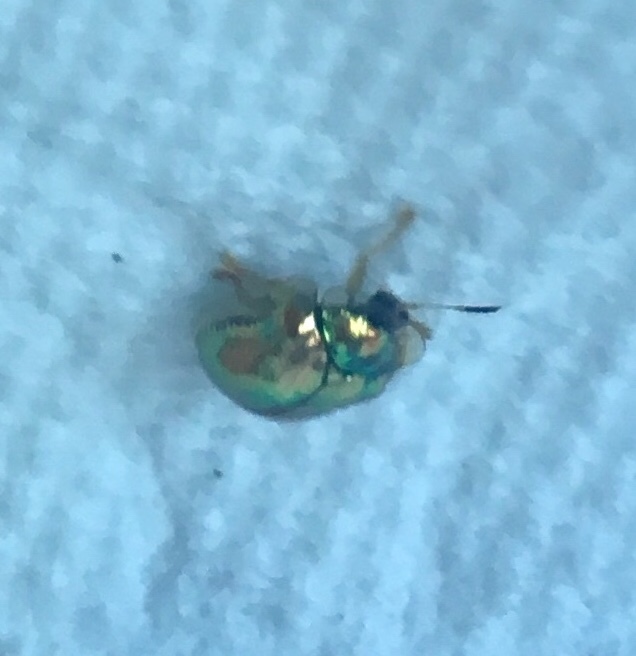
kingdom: Animalia
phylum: Arthropoda
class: Insecta
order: Coleoptera
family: Chrysomelidae
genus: Charidotella
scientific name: Charidotella sexpunctata
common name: Golden tortoise beetle
